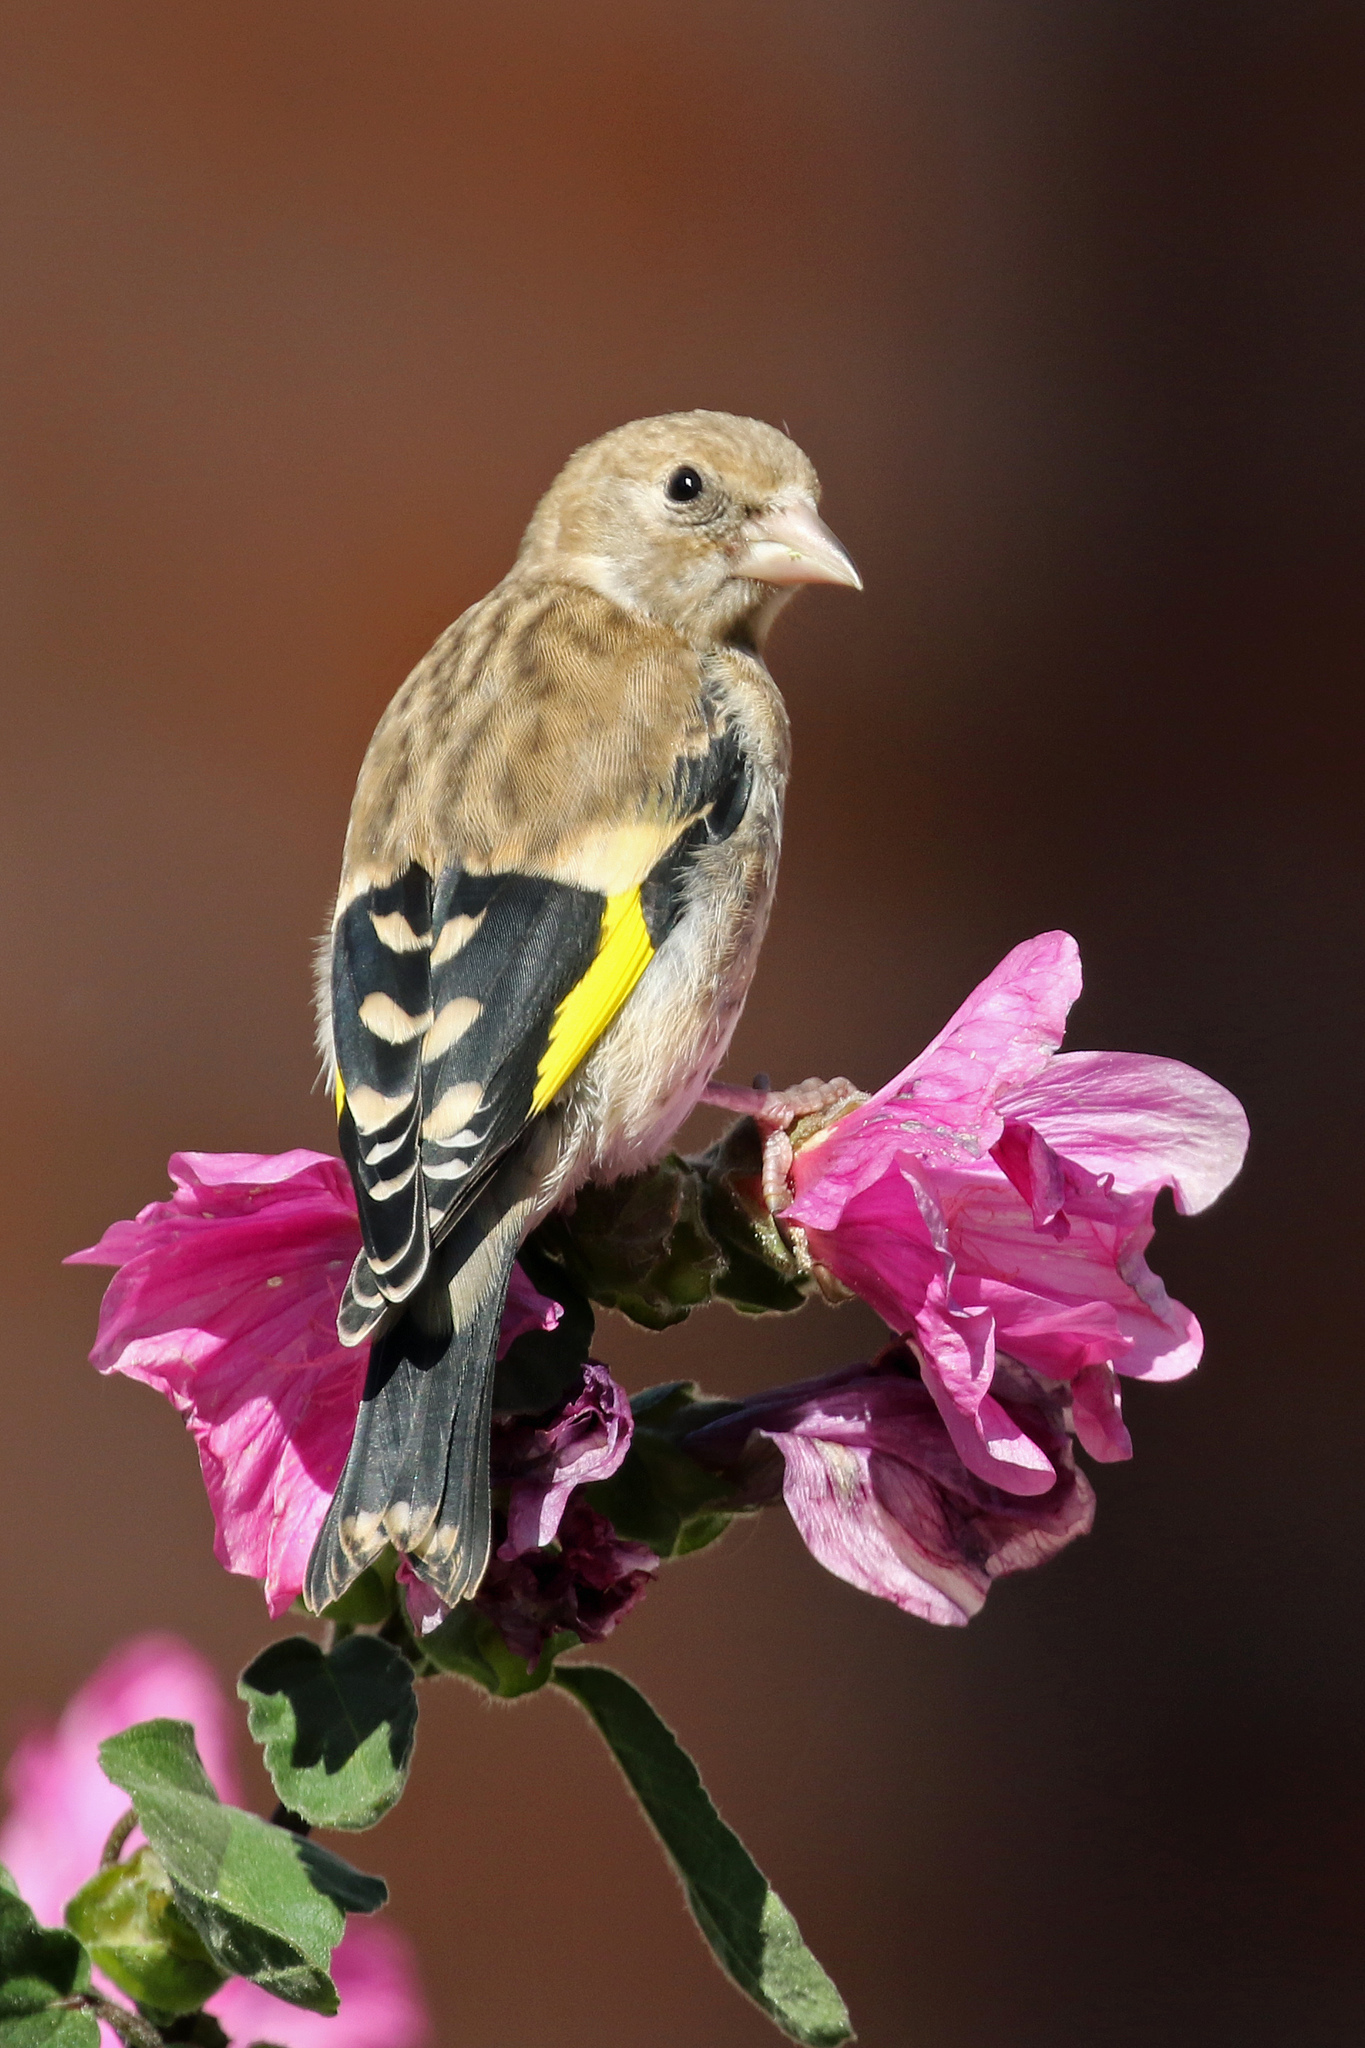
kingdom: Animalia
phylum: Chordata
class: Aves
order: Passeriformes
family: Fringillidae
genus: Carduelis
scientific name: Carduelis carduelis
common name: European goldfinch
